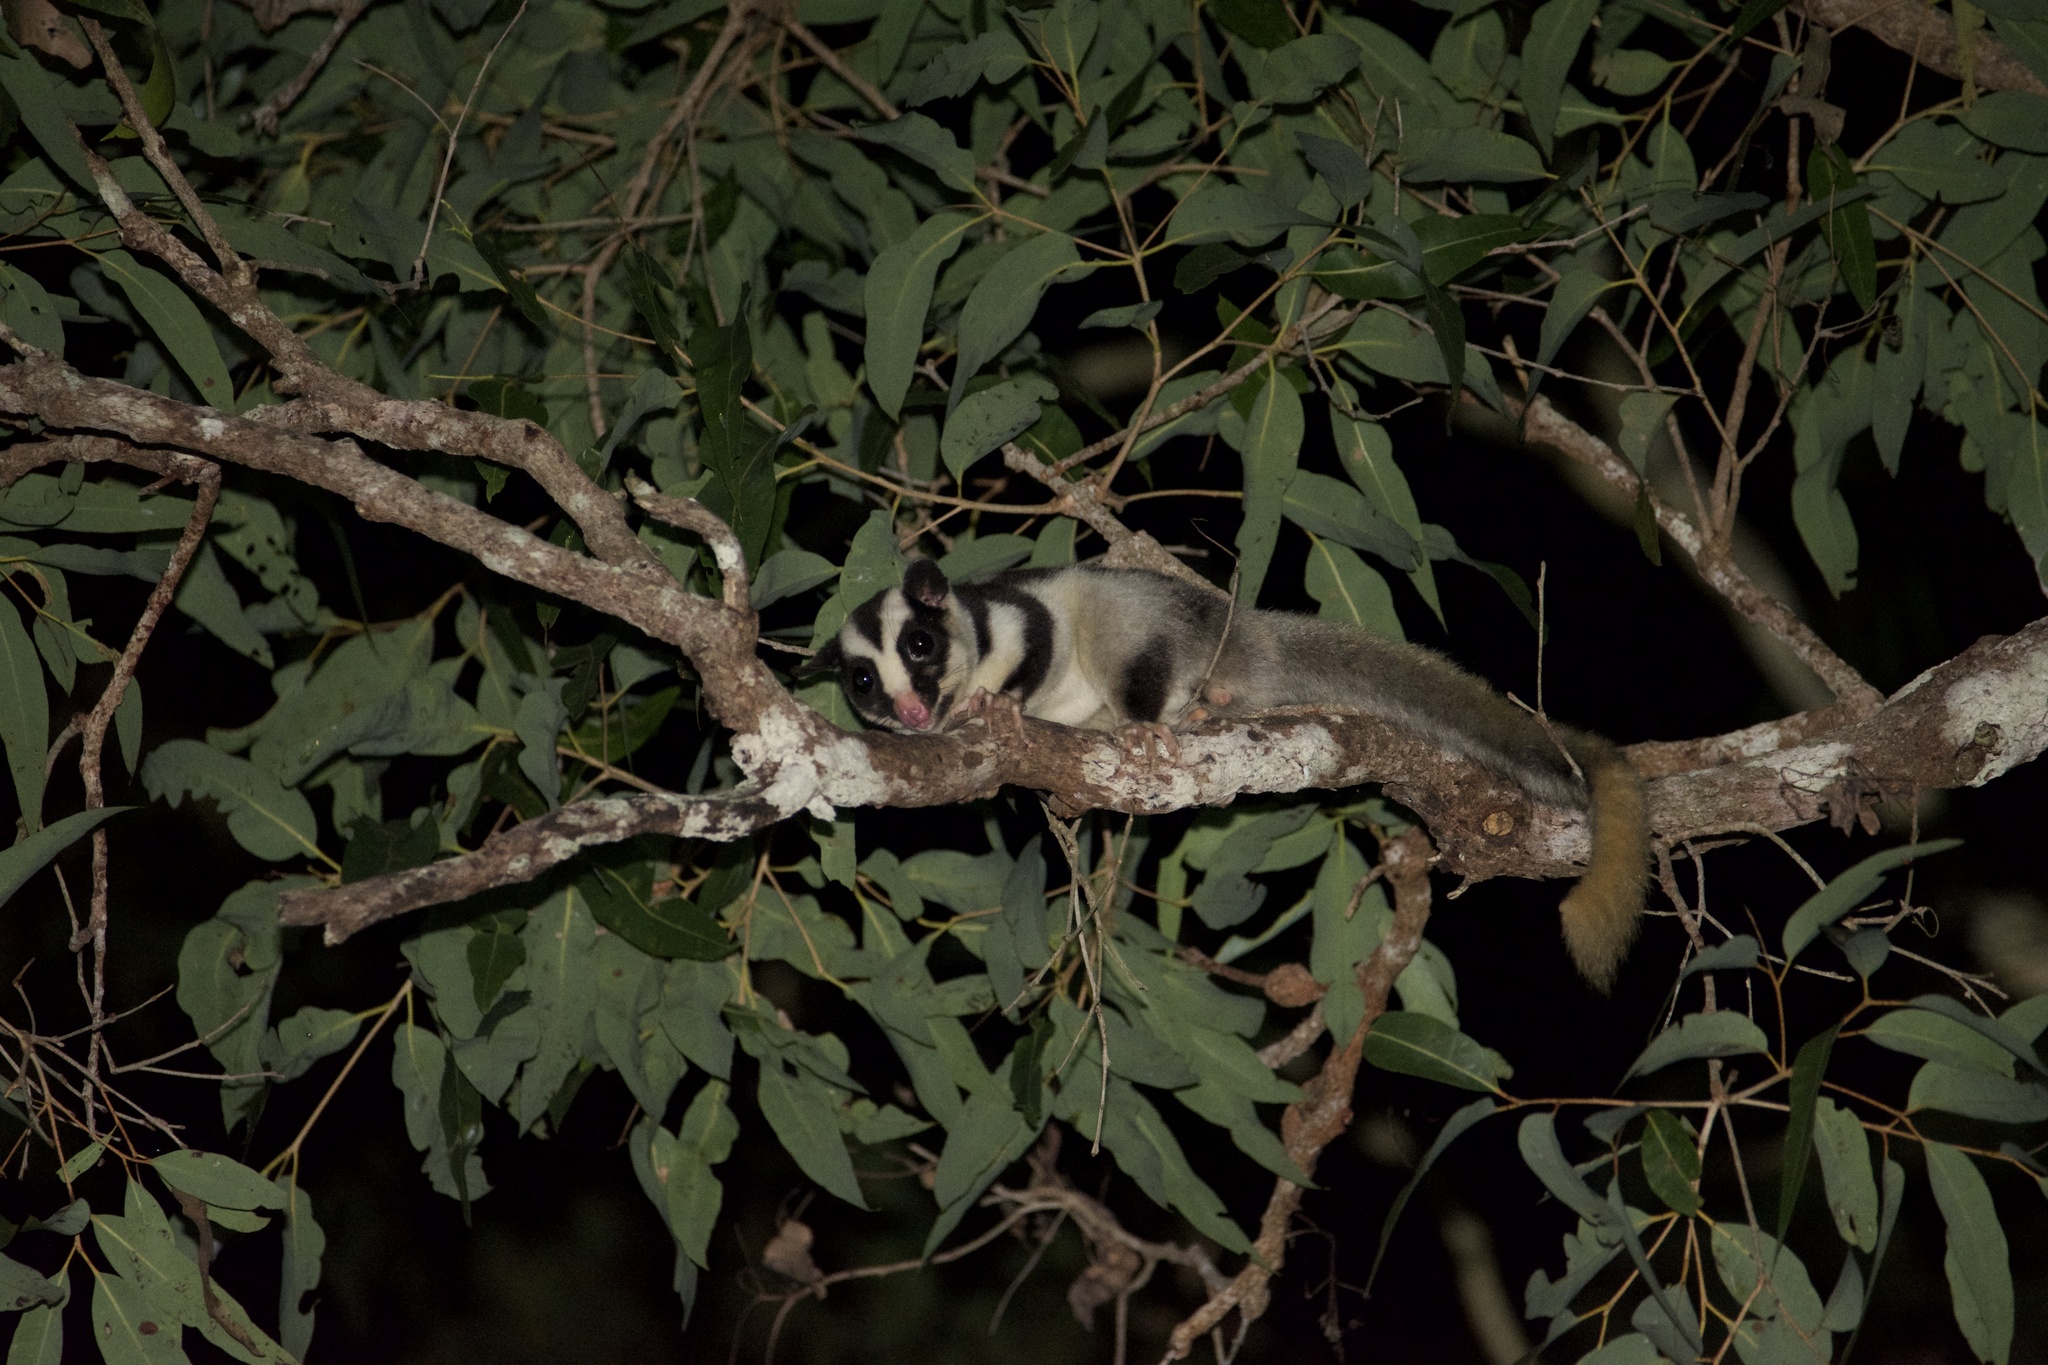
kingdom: Animalia
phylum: Chordata
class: Mammalia
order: Diprotodontia
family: Petauridae
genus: Dactylopsila
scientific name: Dactylopsila trivirgata
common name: Striped possum
